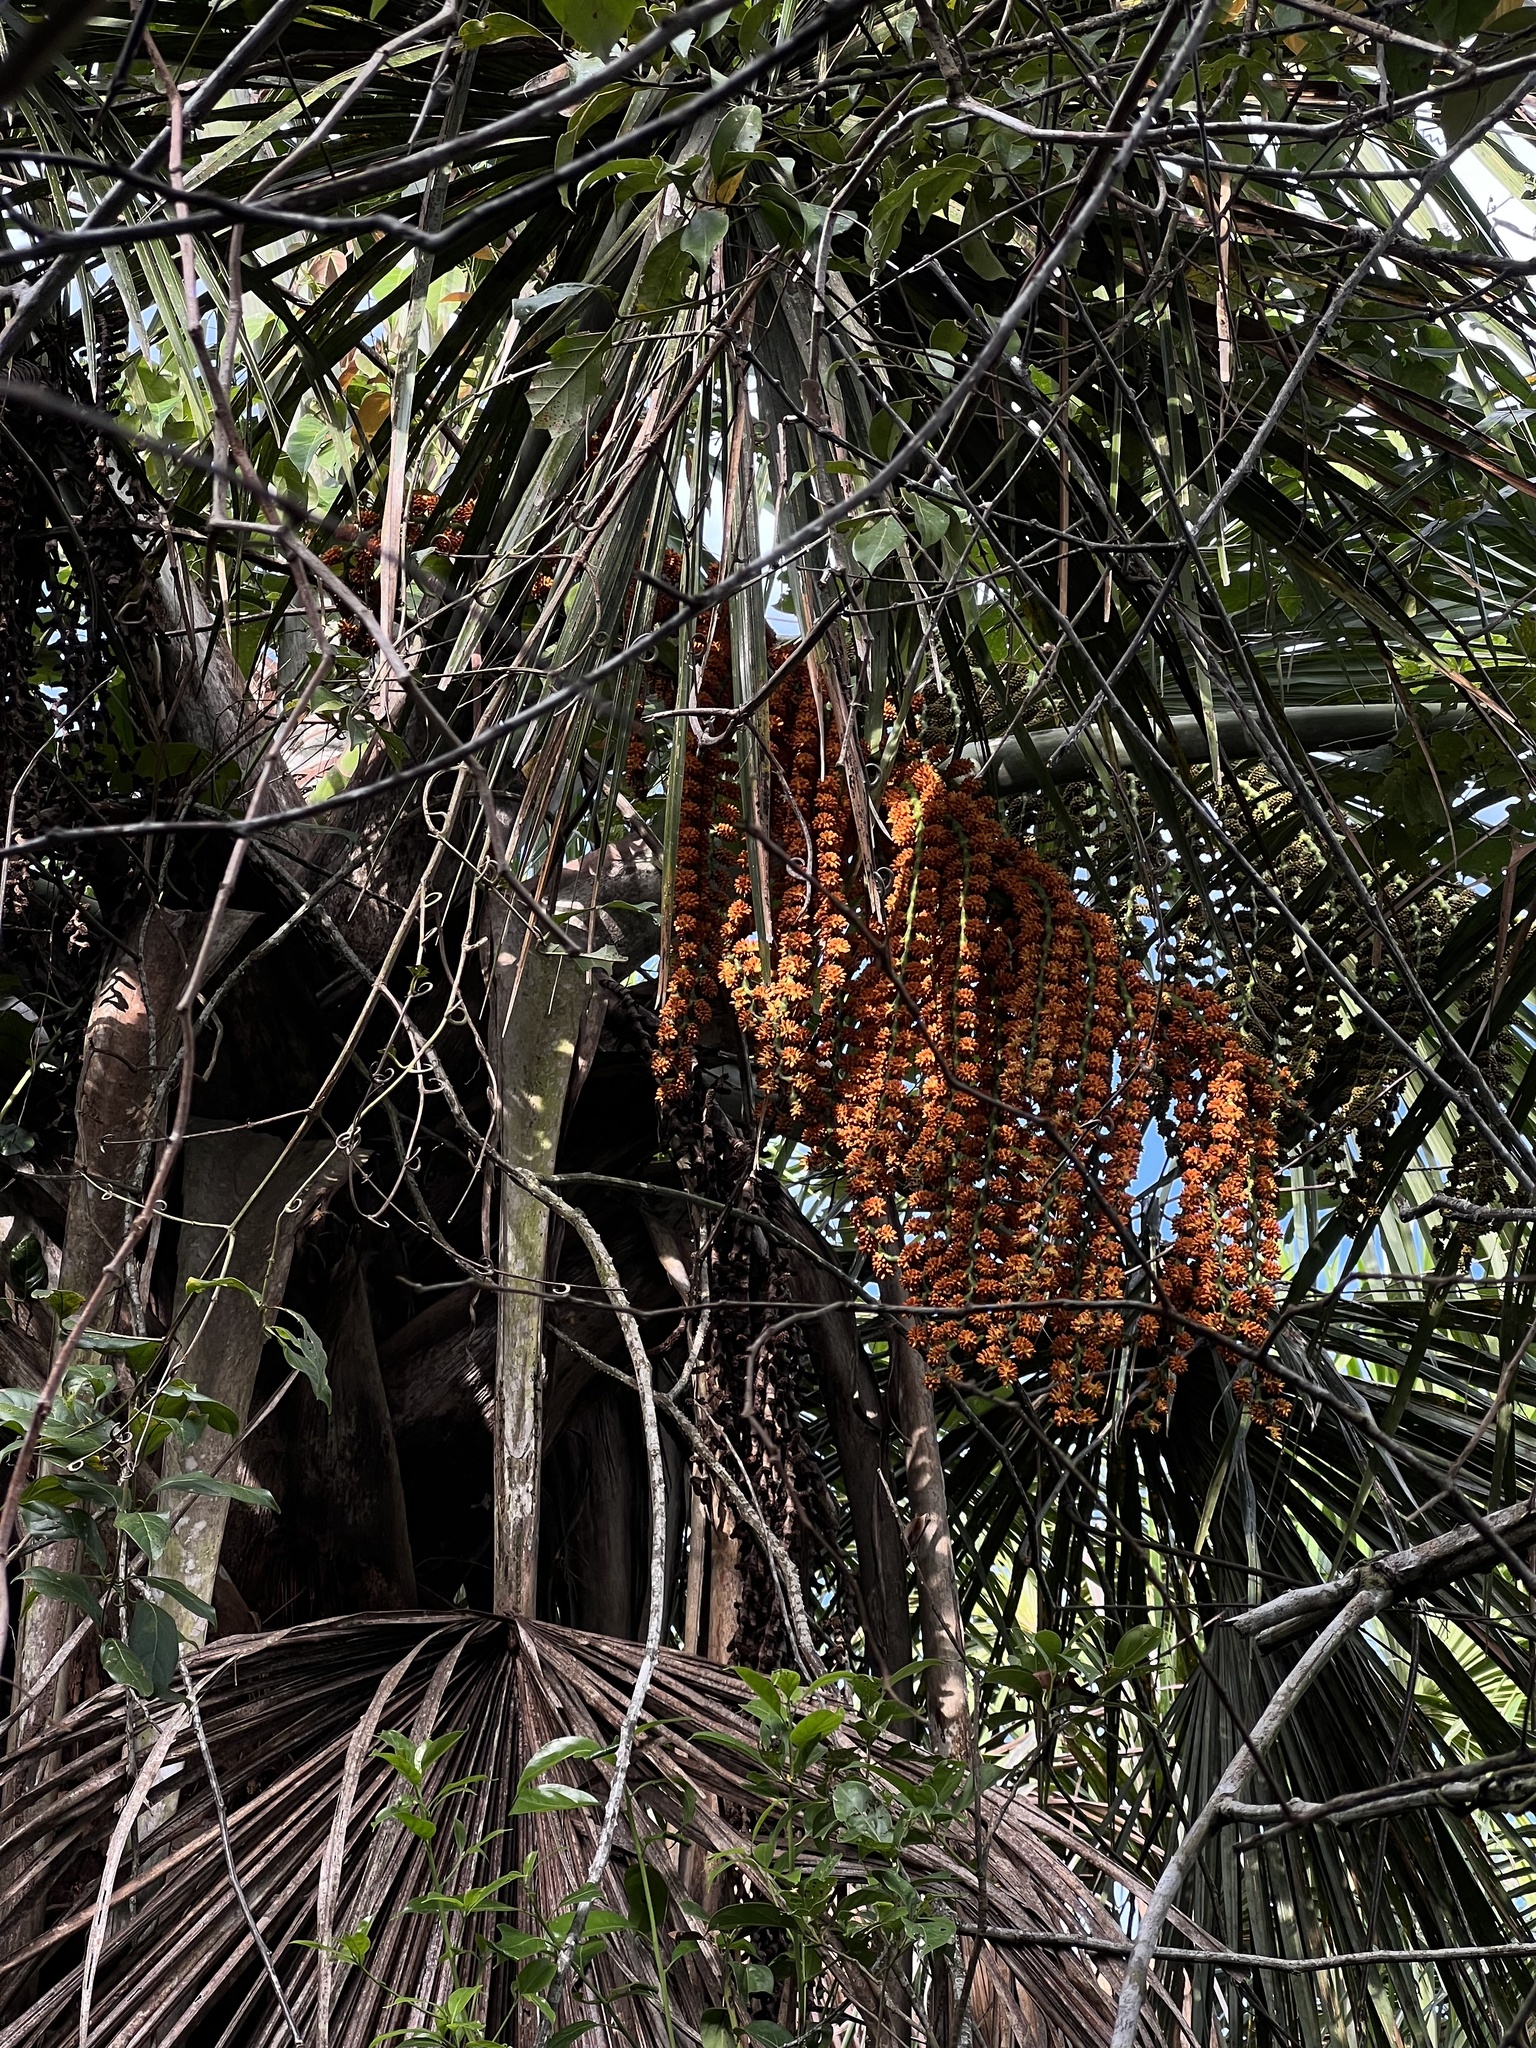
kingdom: Plantae
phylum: Tracheophyta
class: Liliopsida
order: Arecales
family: Arecaceae
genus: Mauritia
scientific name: Mauritia flexuosa
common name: Tree-of-life
